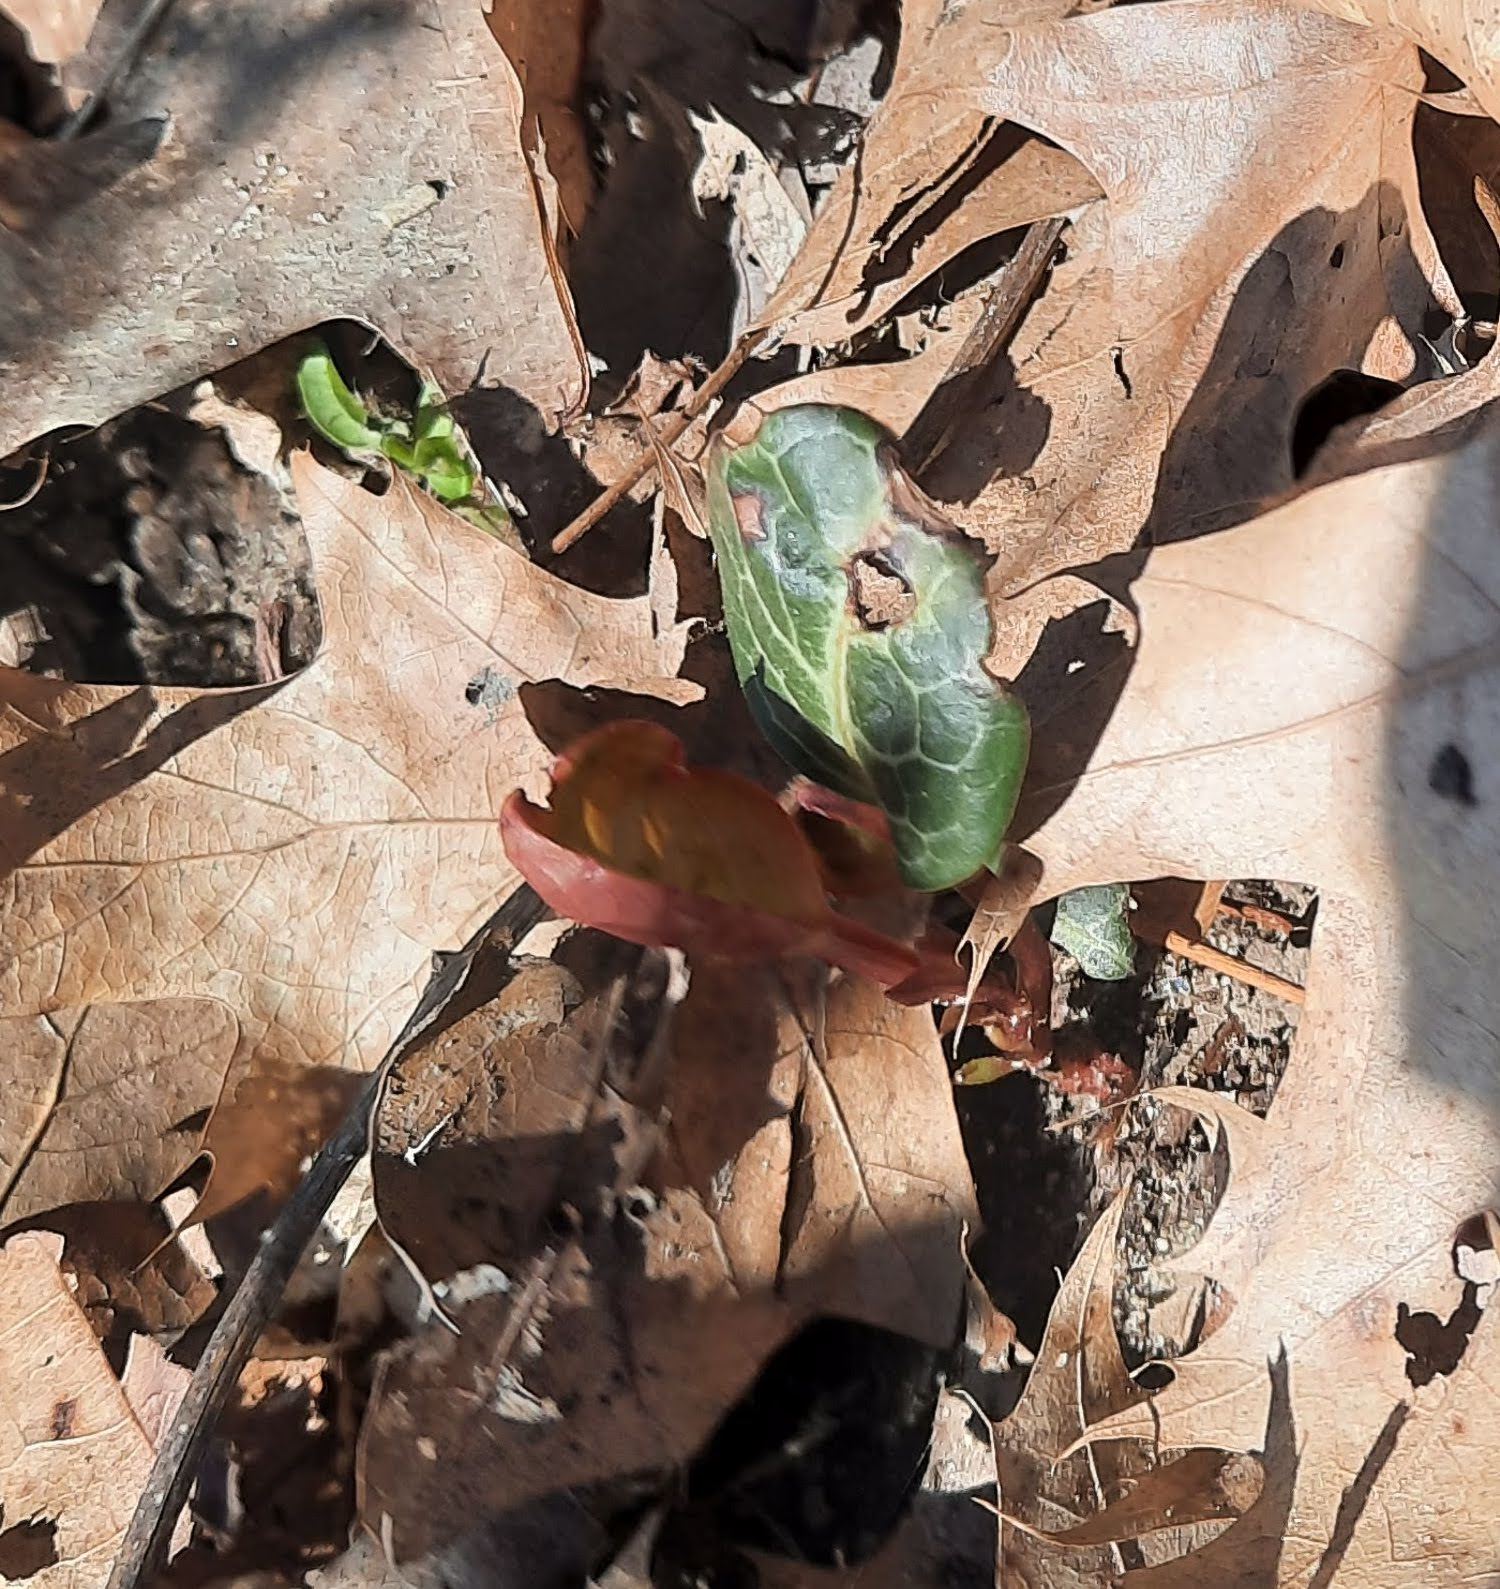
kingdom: Plantae
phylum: Tracheophyta
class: Magnoliopsida
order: Ericales
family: Ericaceae
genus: Pyrola
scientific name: Pyrola americana
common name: American wintergreen
